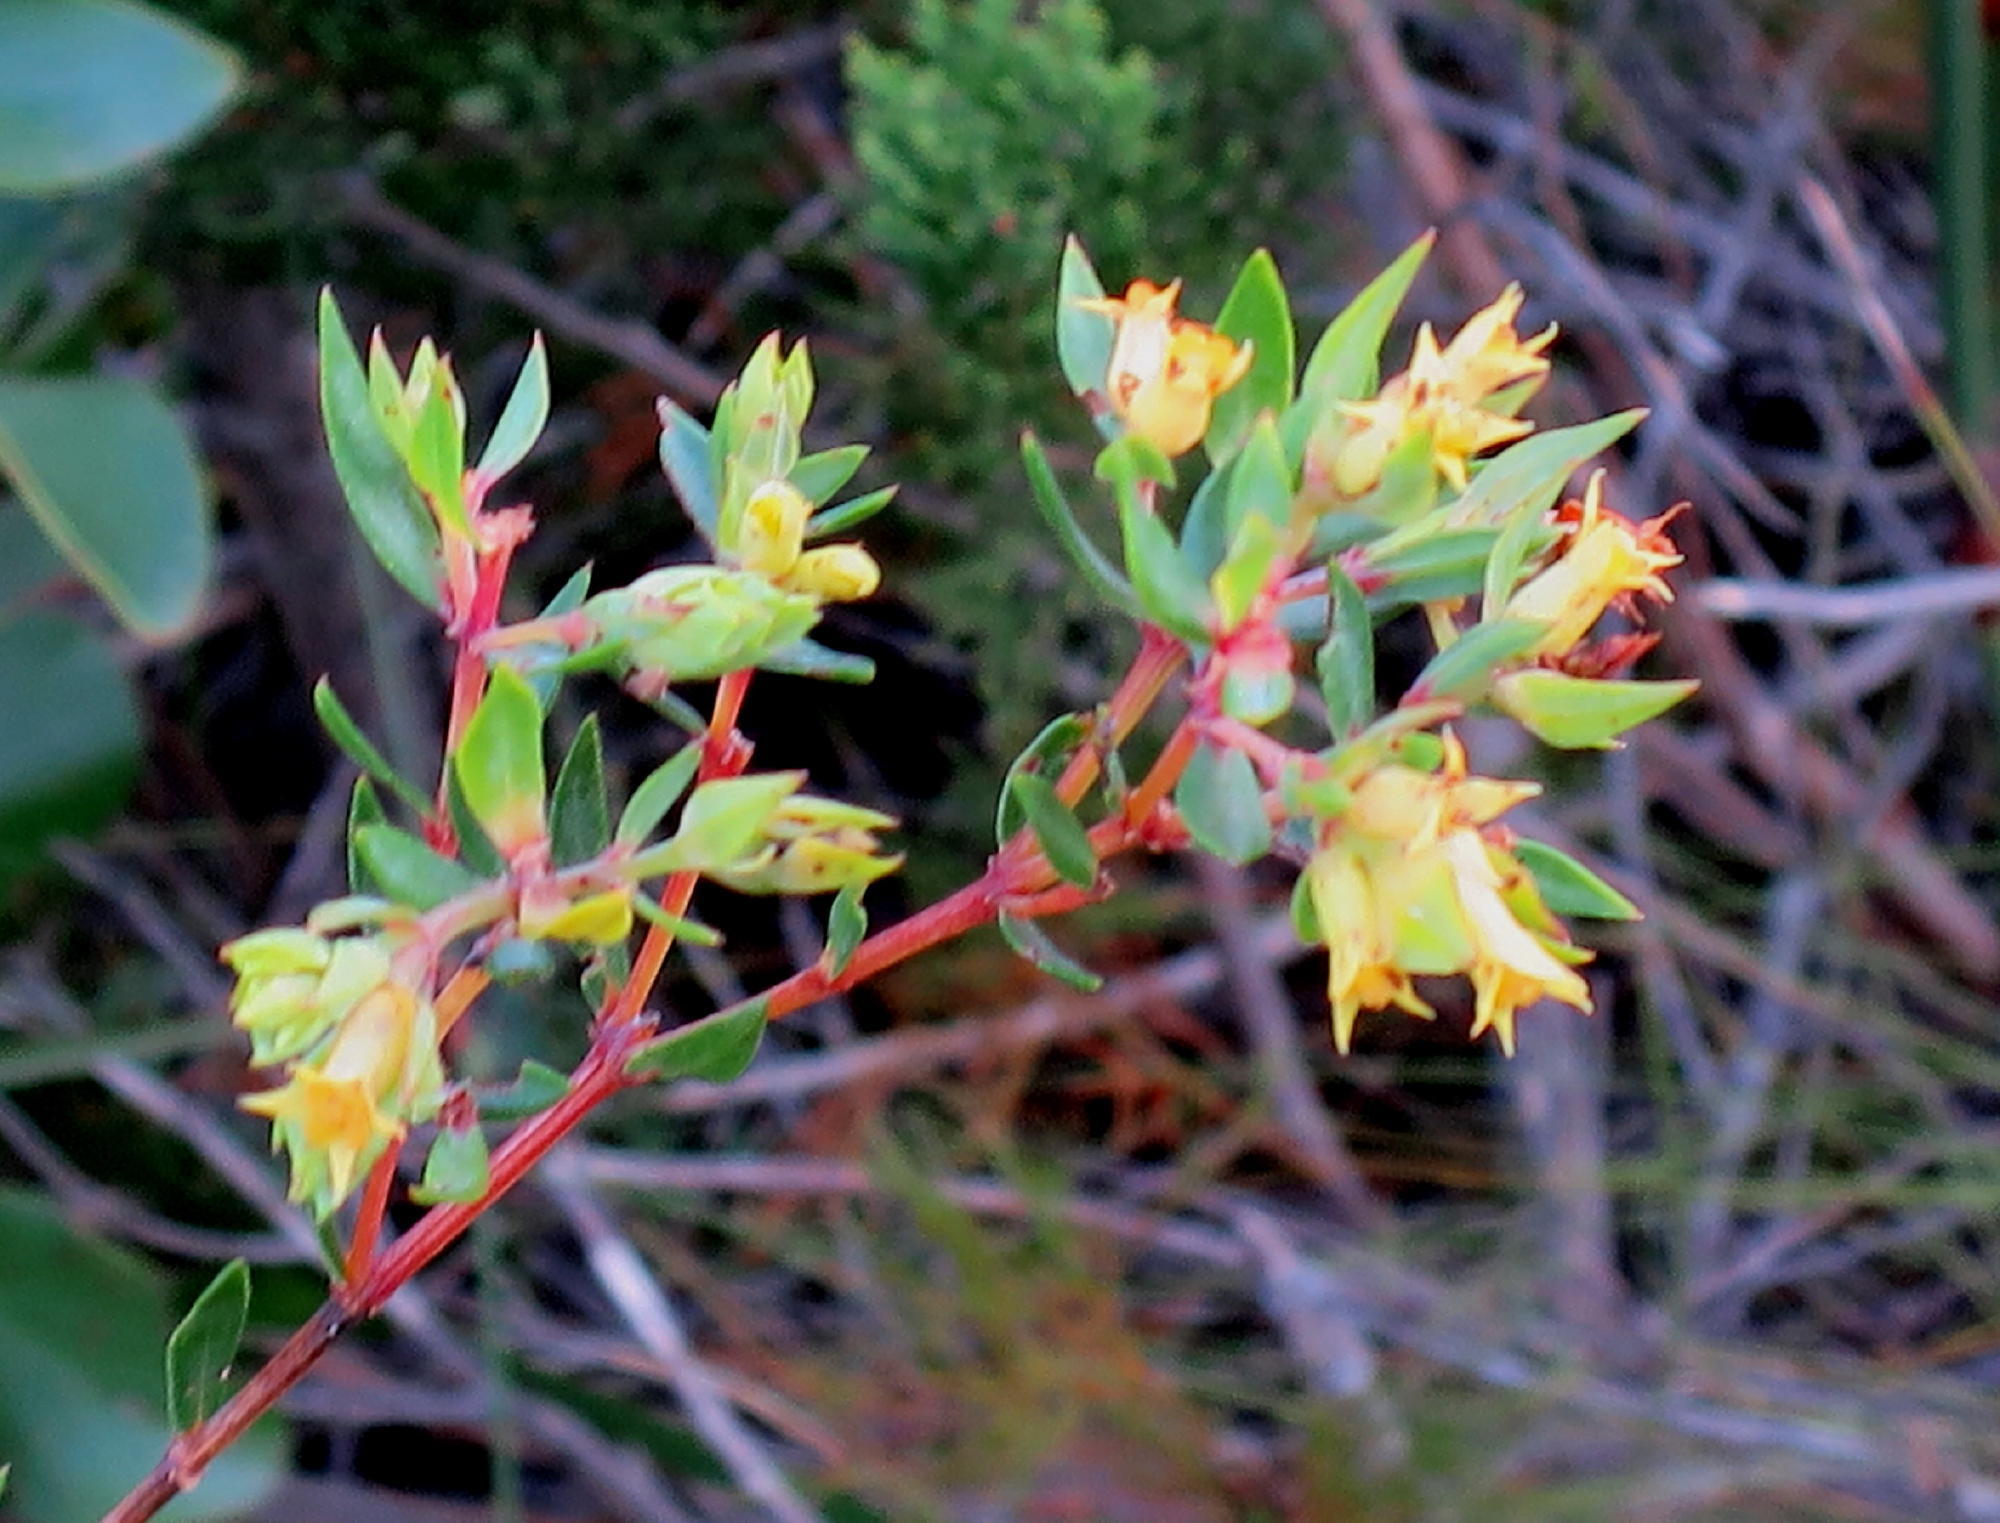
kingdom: Plantae
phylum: Tracheophyta
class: Magnoliopsida
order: Myrtales
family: Penaeaceae
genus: Penaea
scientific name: Penaea acutifolia
